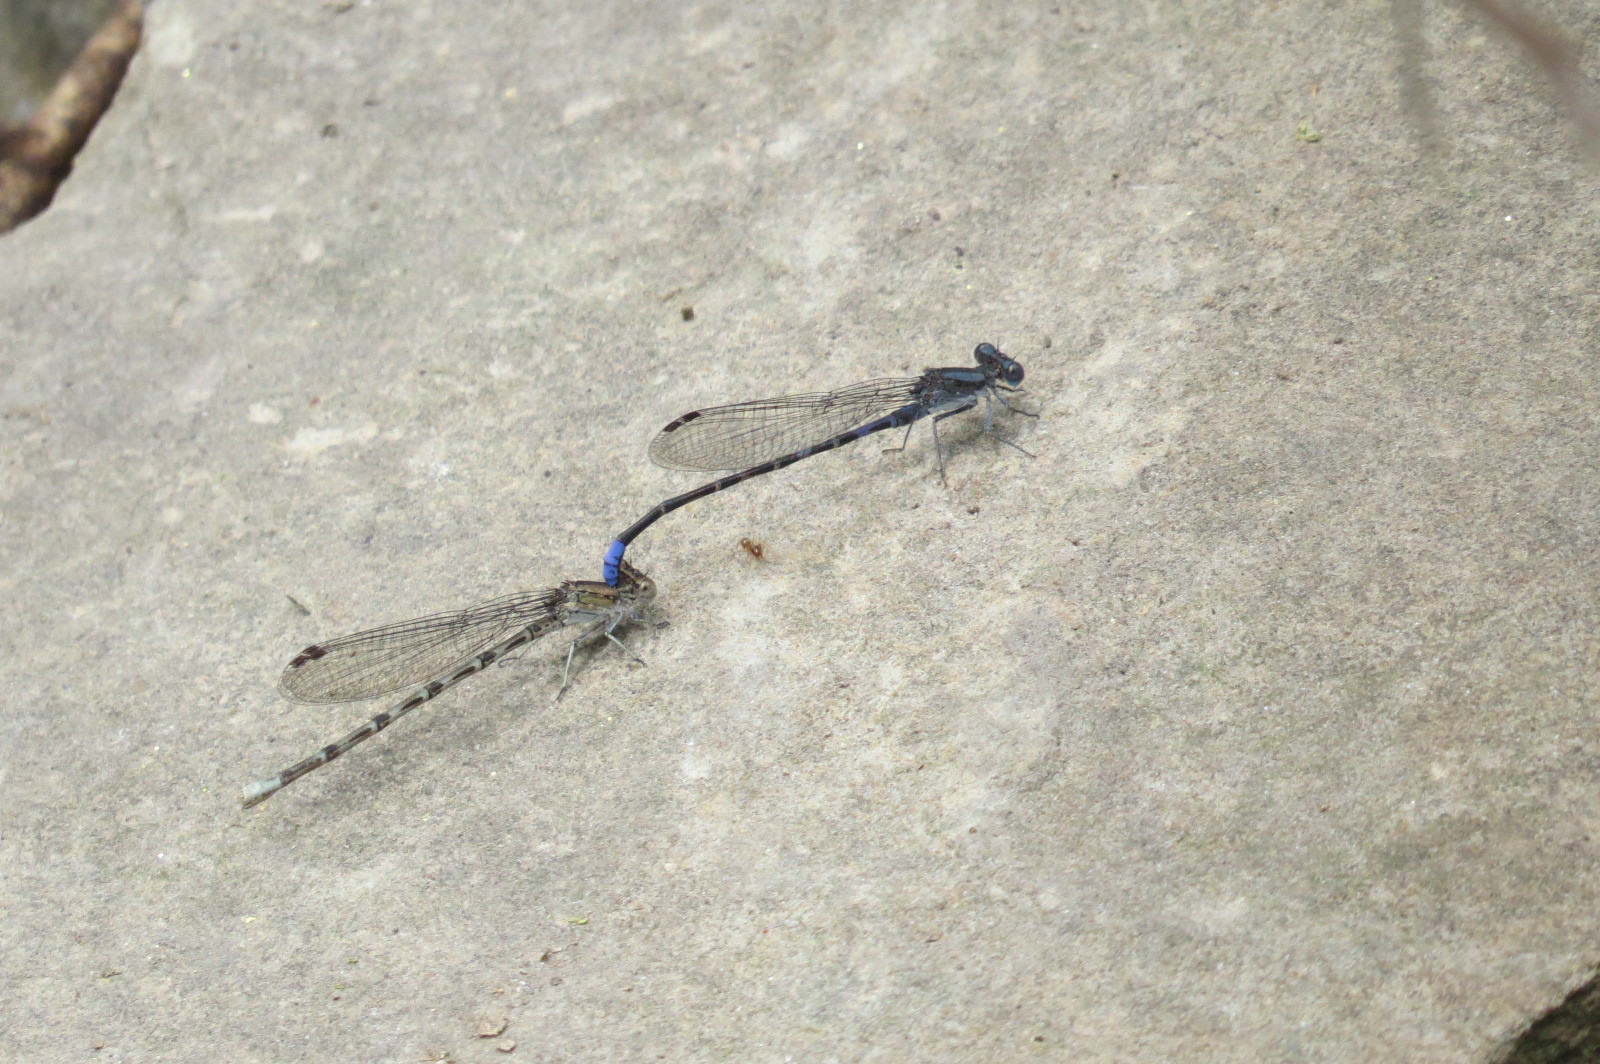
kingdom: Animalia
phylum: Arthropoda
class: Insecta
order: Odonata
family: Coenagrionidae
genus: Argia
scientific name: Argia immunda
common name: Kiowa dancer
